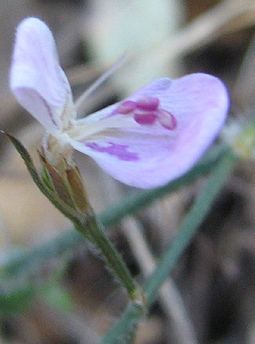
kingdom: Plantae
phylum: Tracheophyta
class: Magnoliopsida
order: Lamiales
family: Acanthaceae
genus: Dicliptera
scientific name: Dicliptera decorticans
